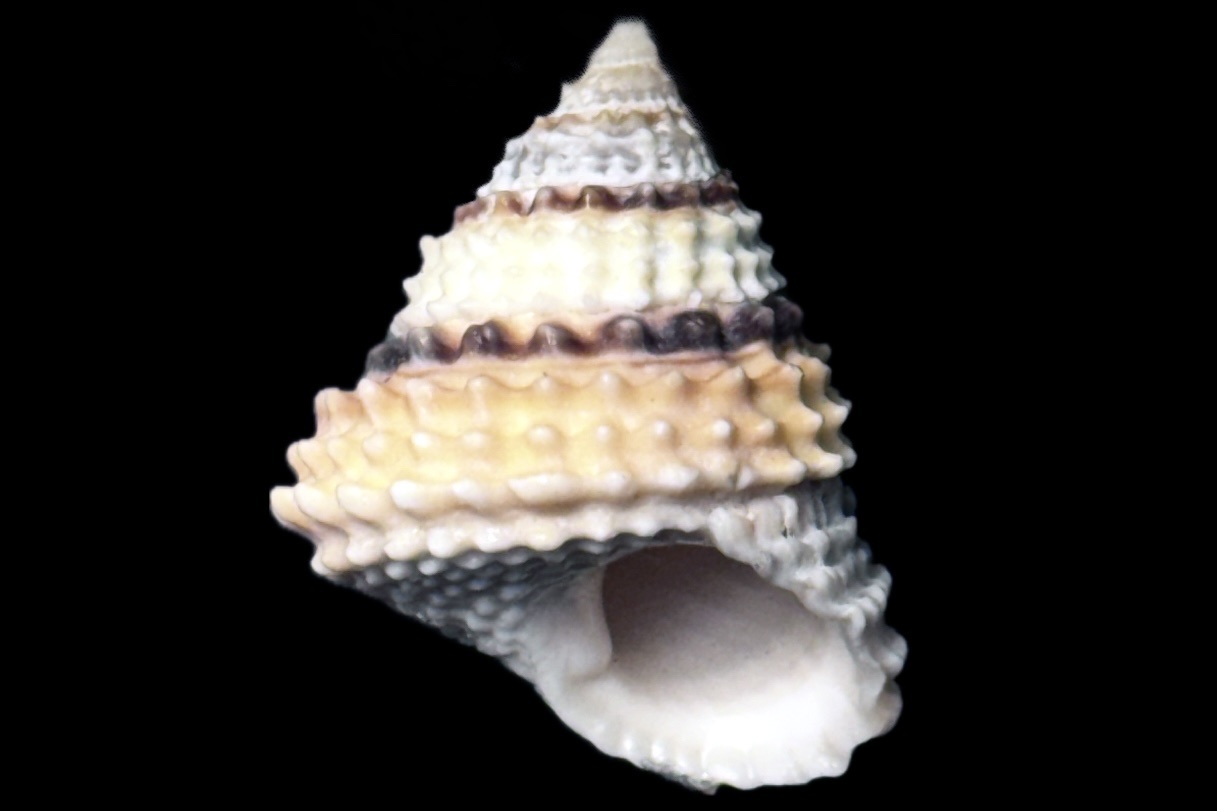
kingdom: Animalia
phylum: Mollusca
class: Gastropoda
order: Littorinimorpha
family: Littorinidae
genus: Cenchritis
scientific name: Cenchritis muricatus
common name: Beaded periwinkle
